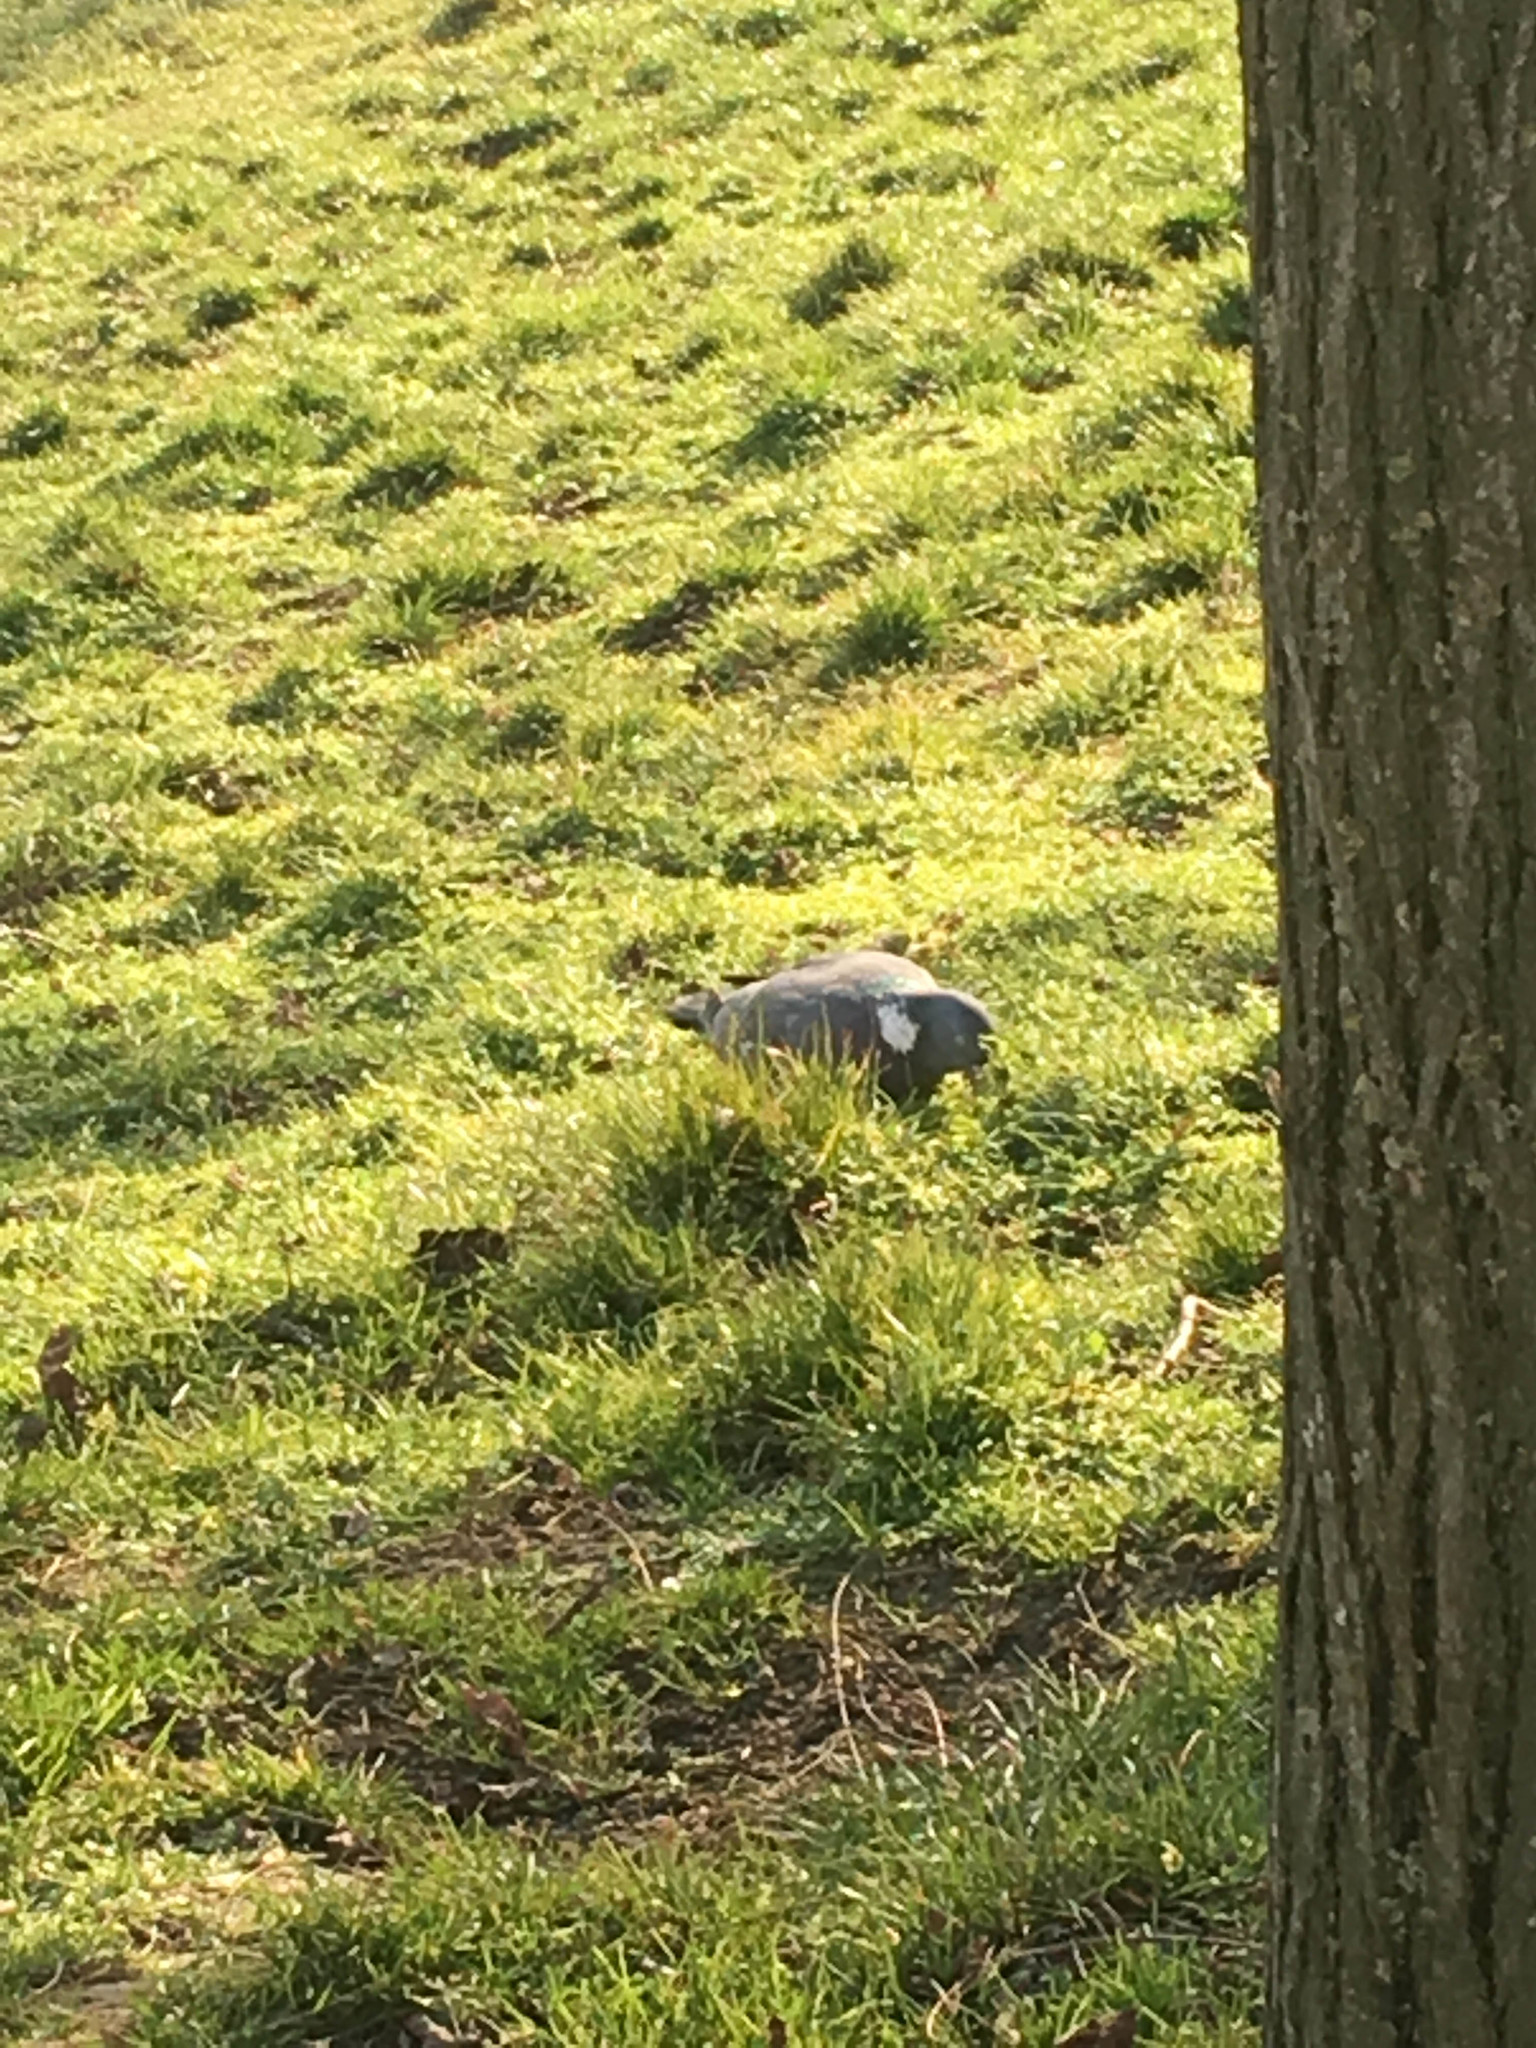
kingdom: Animalia
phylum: Chordata
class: Aves
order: Columbiformes
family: Columbidae
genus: Columba
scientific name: Columba palumbus
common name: Common wood pigeon
